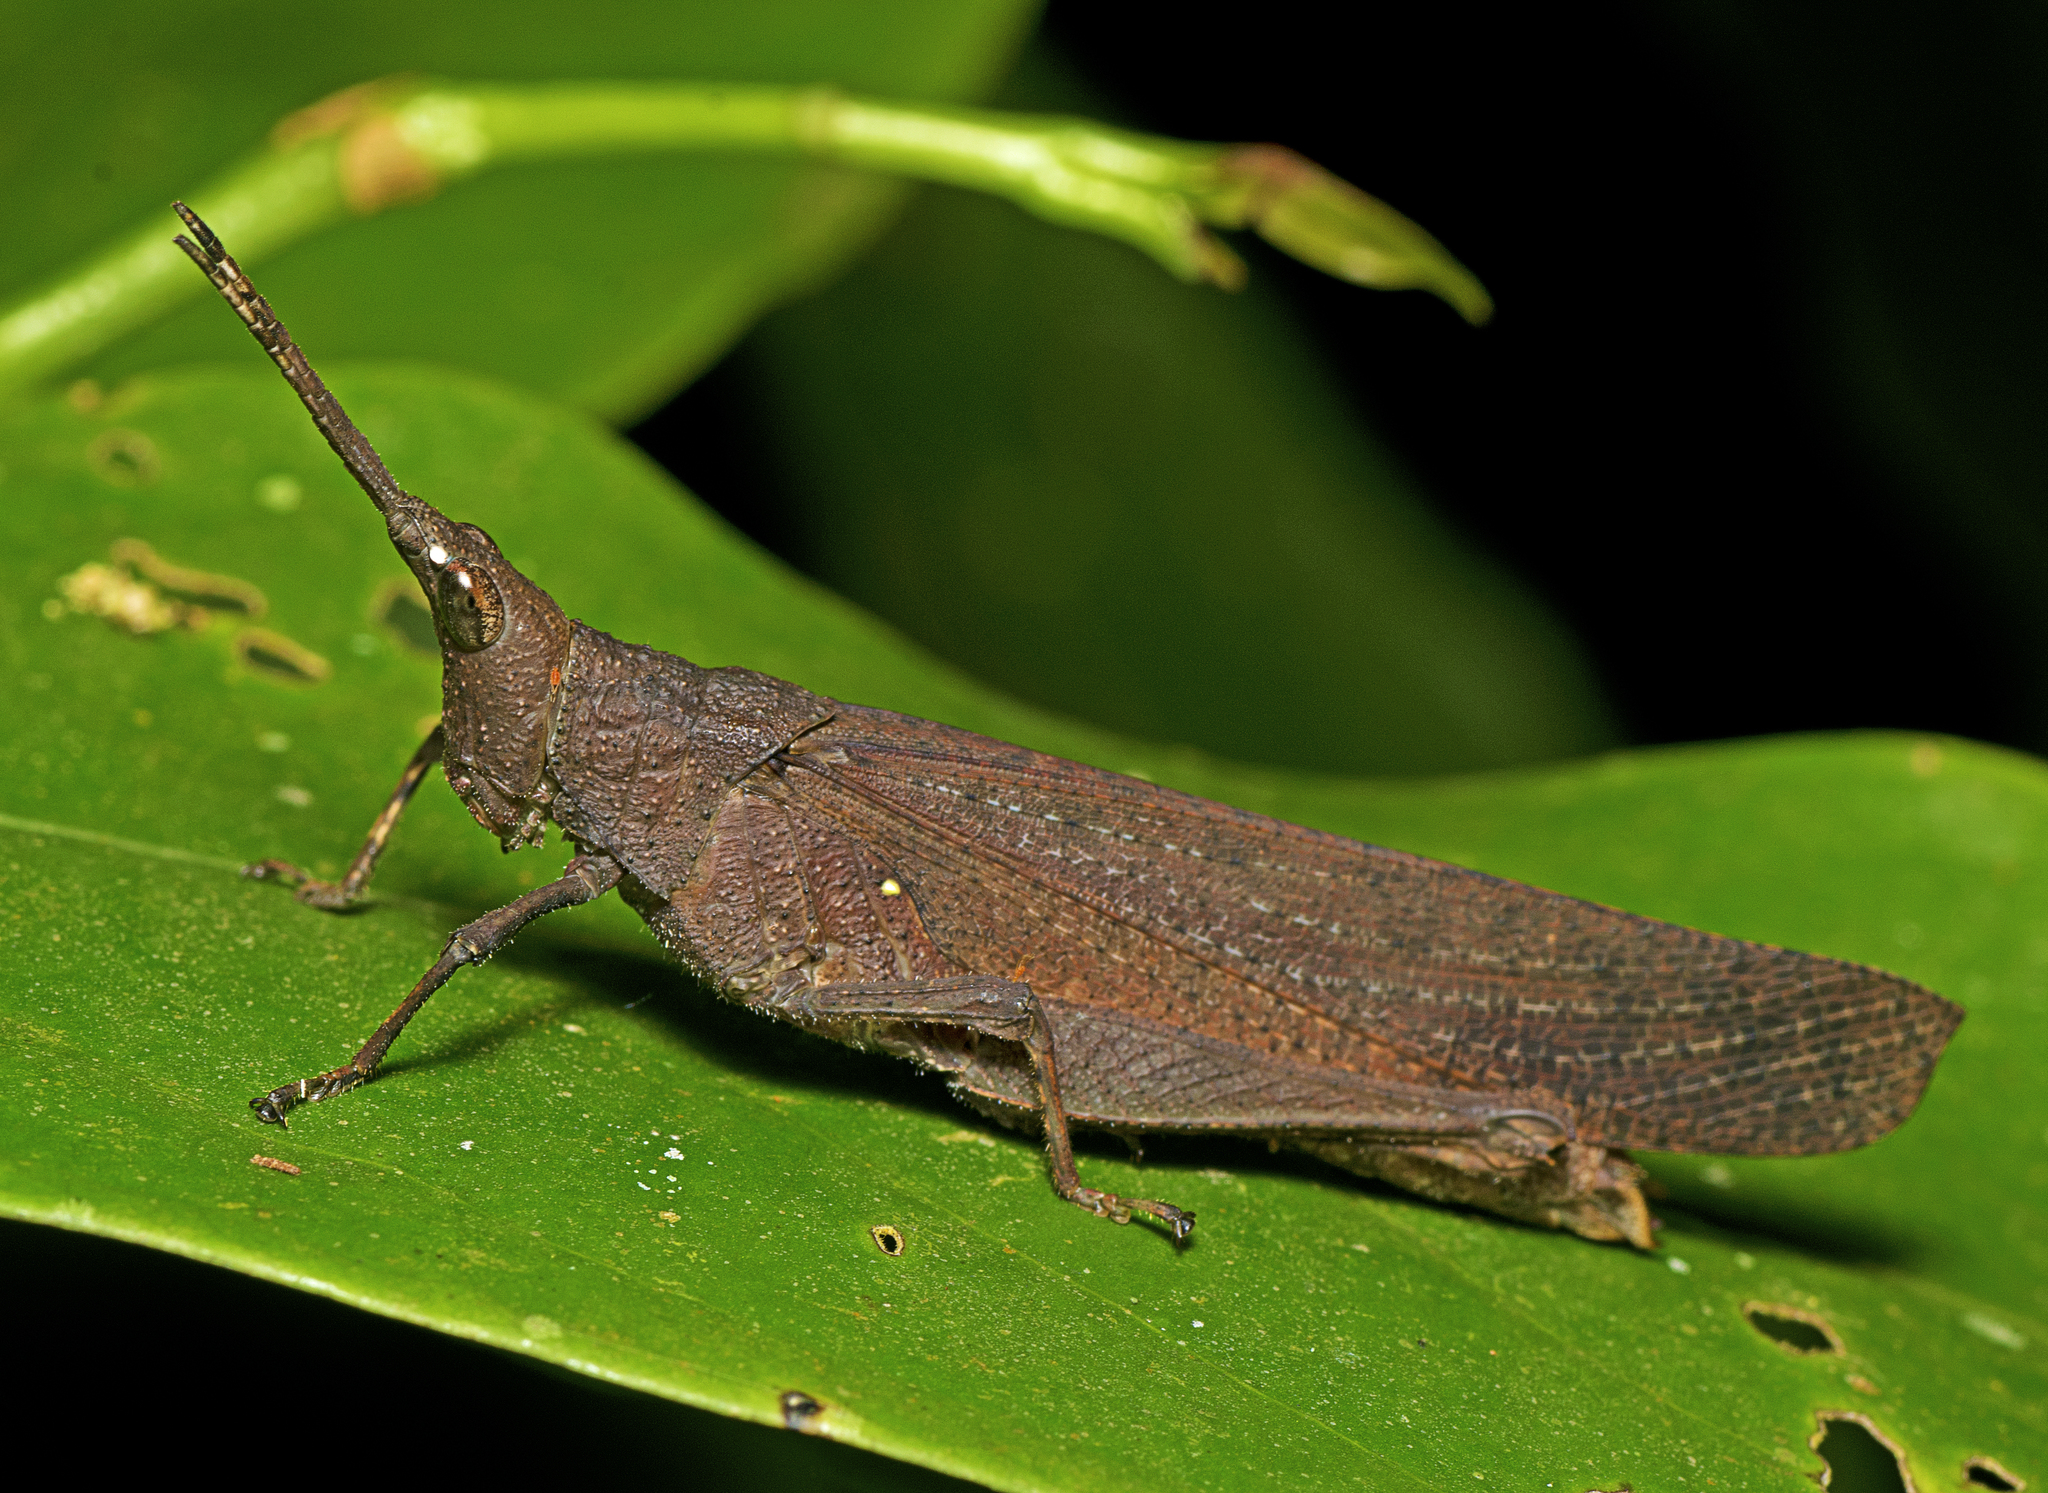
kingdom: Animalia
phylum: Arthropoda
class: Insecta
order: Orthoptera
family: Pyrgomorphidae
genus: Desmoptera
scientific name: Desmoptera truncatipennis
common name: Large forest pyrgomorph
